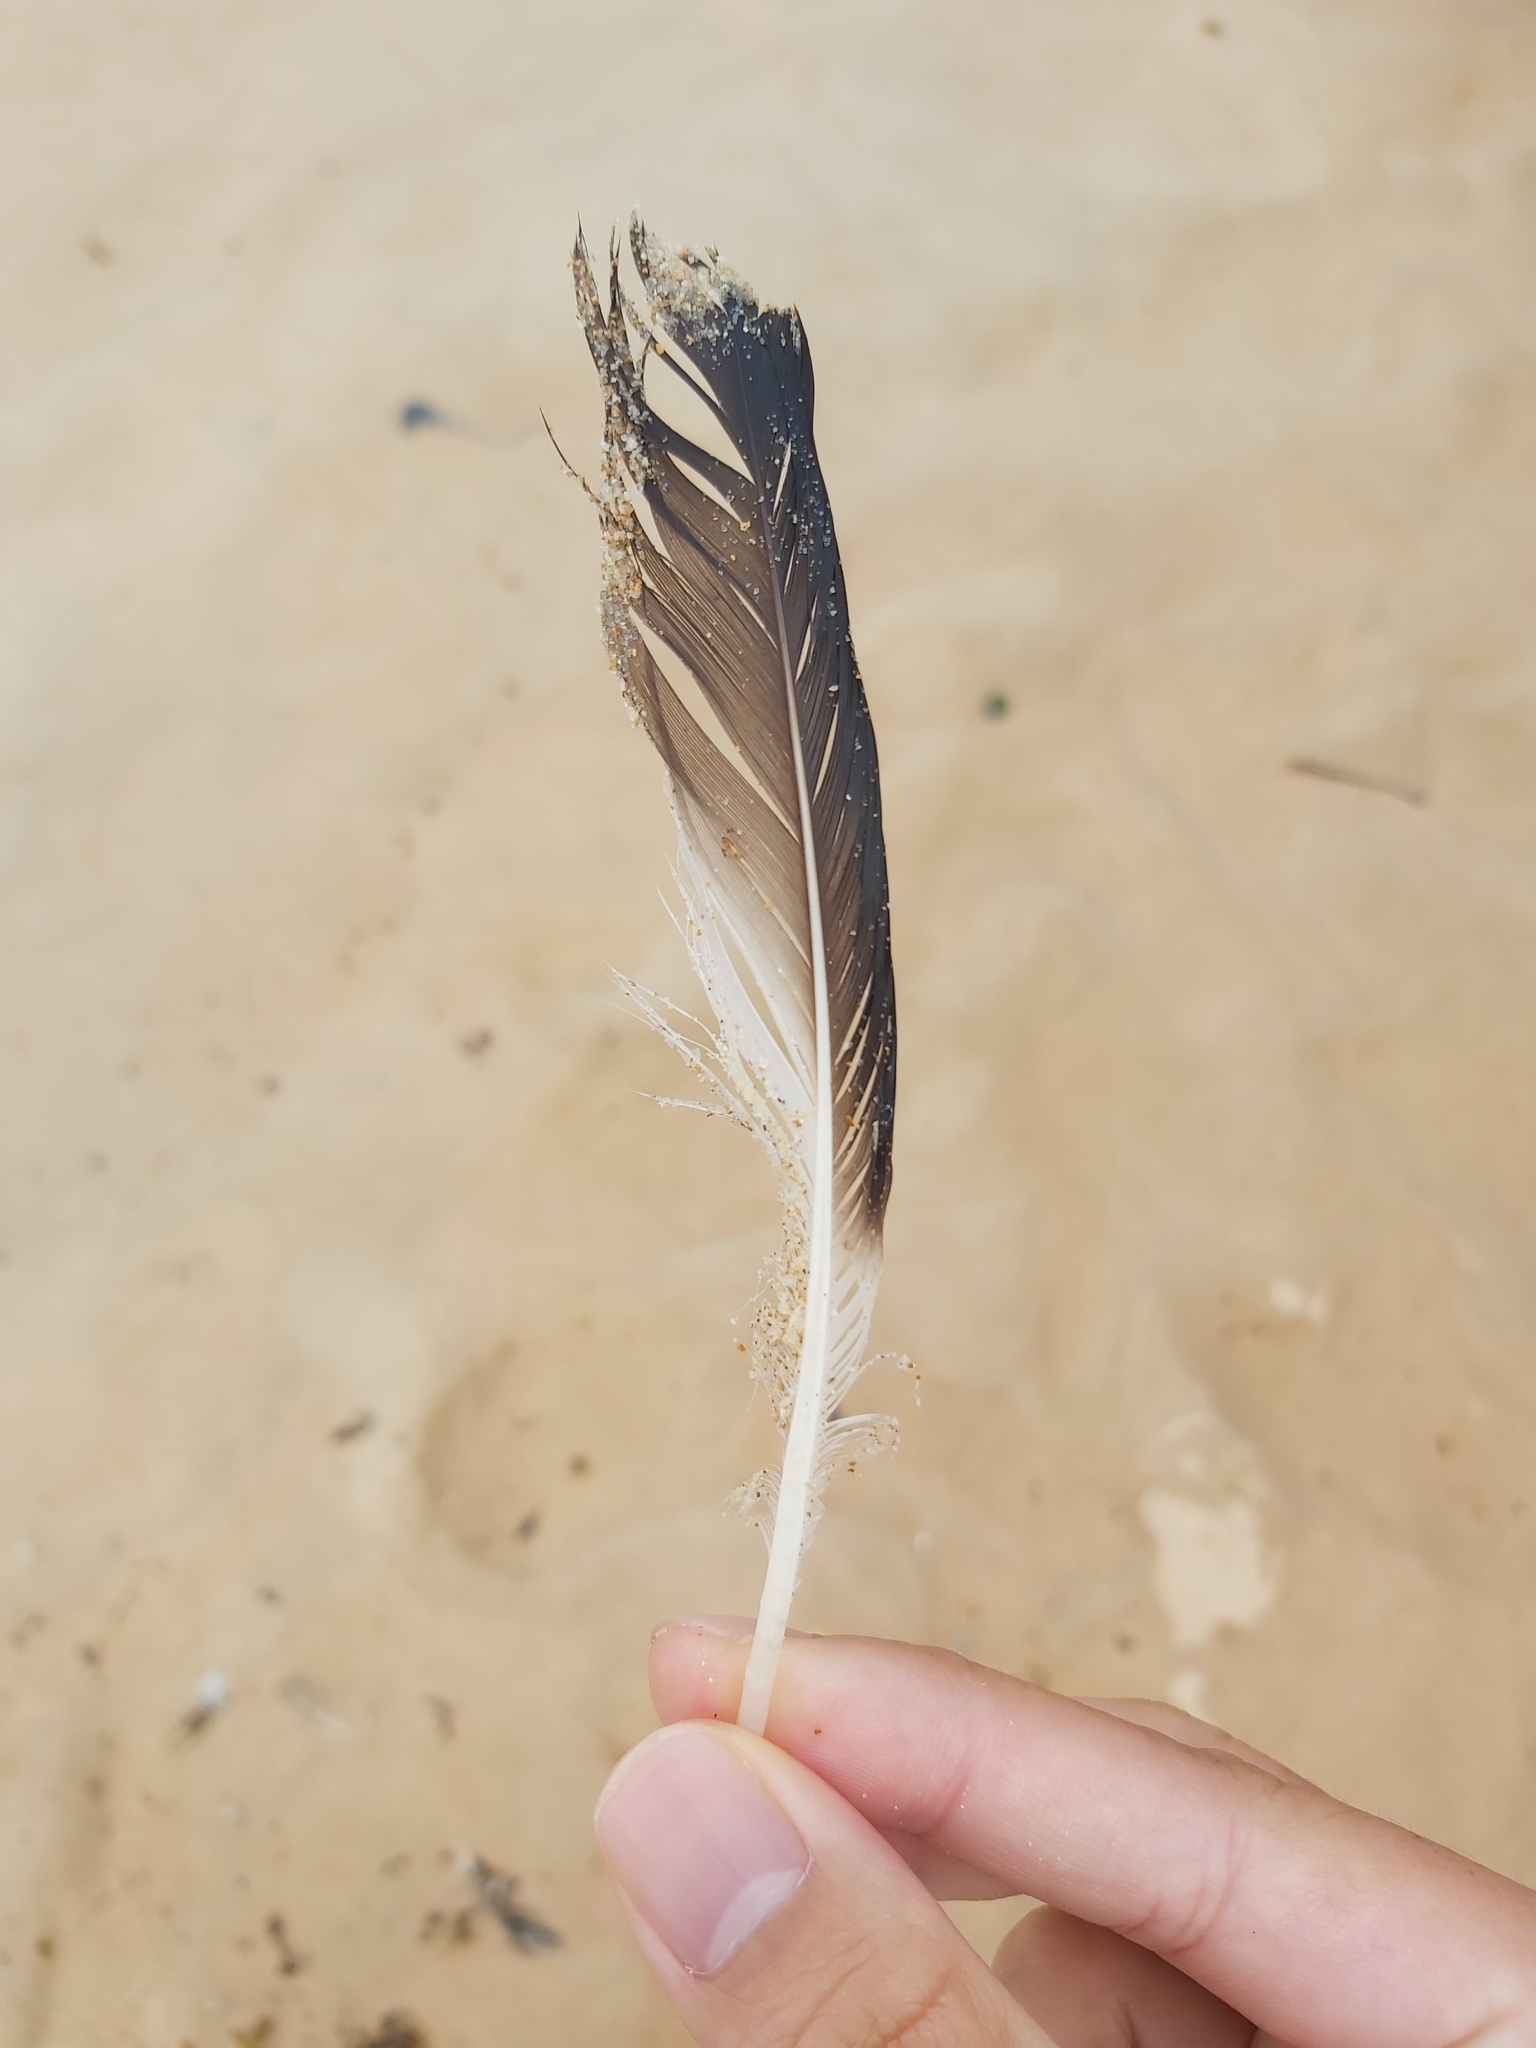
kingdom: Animalia
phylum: Chordata
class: Aves
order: Suliformes
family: Sulidae
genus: Morus
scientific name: Morus serrator
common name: Australasian gannet
